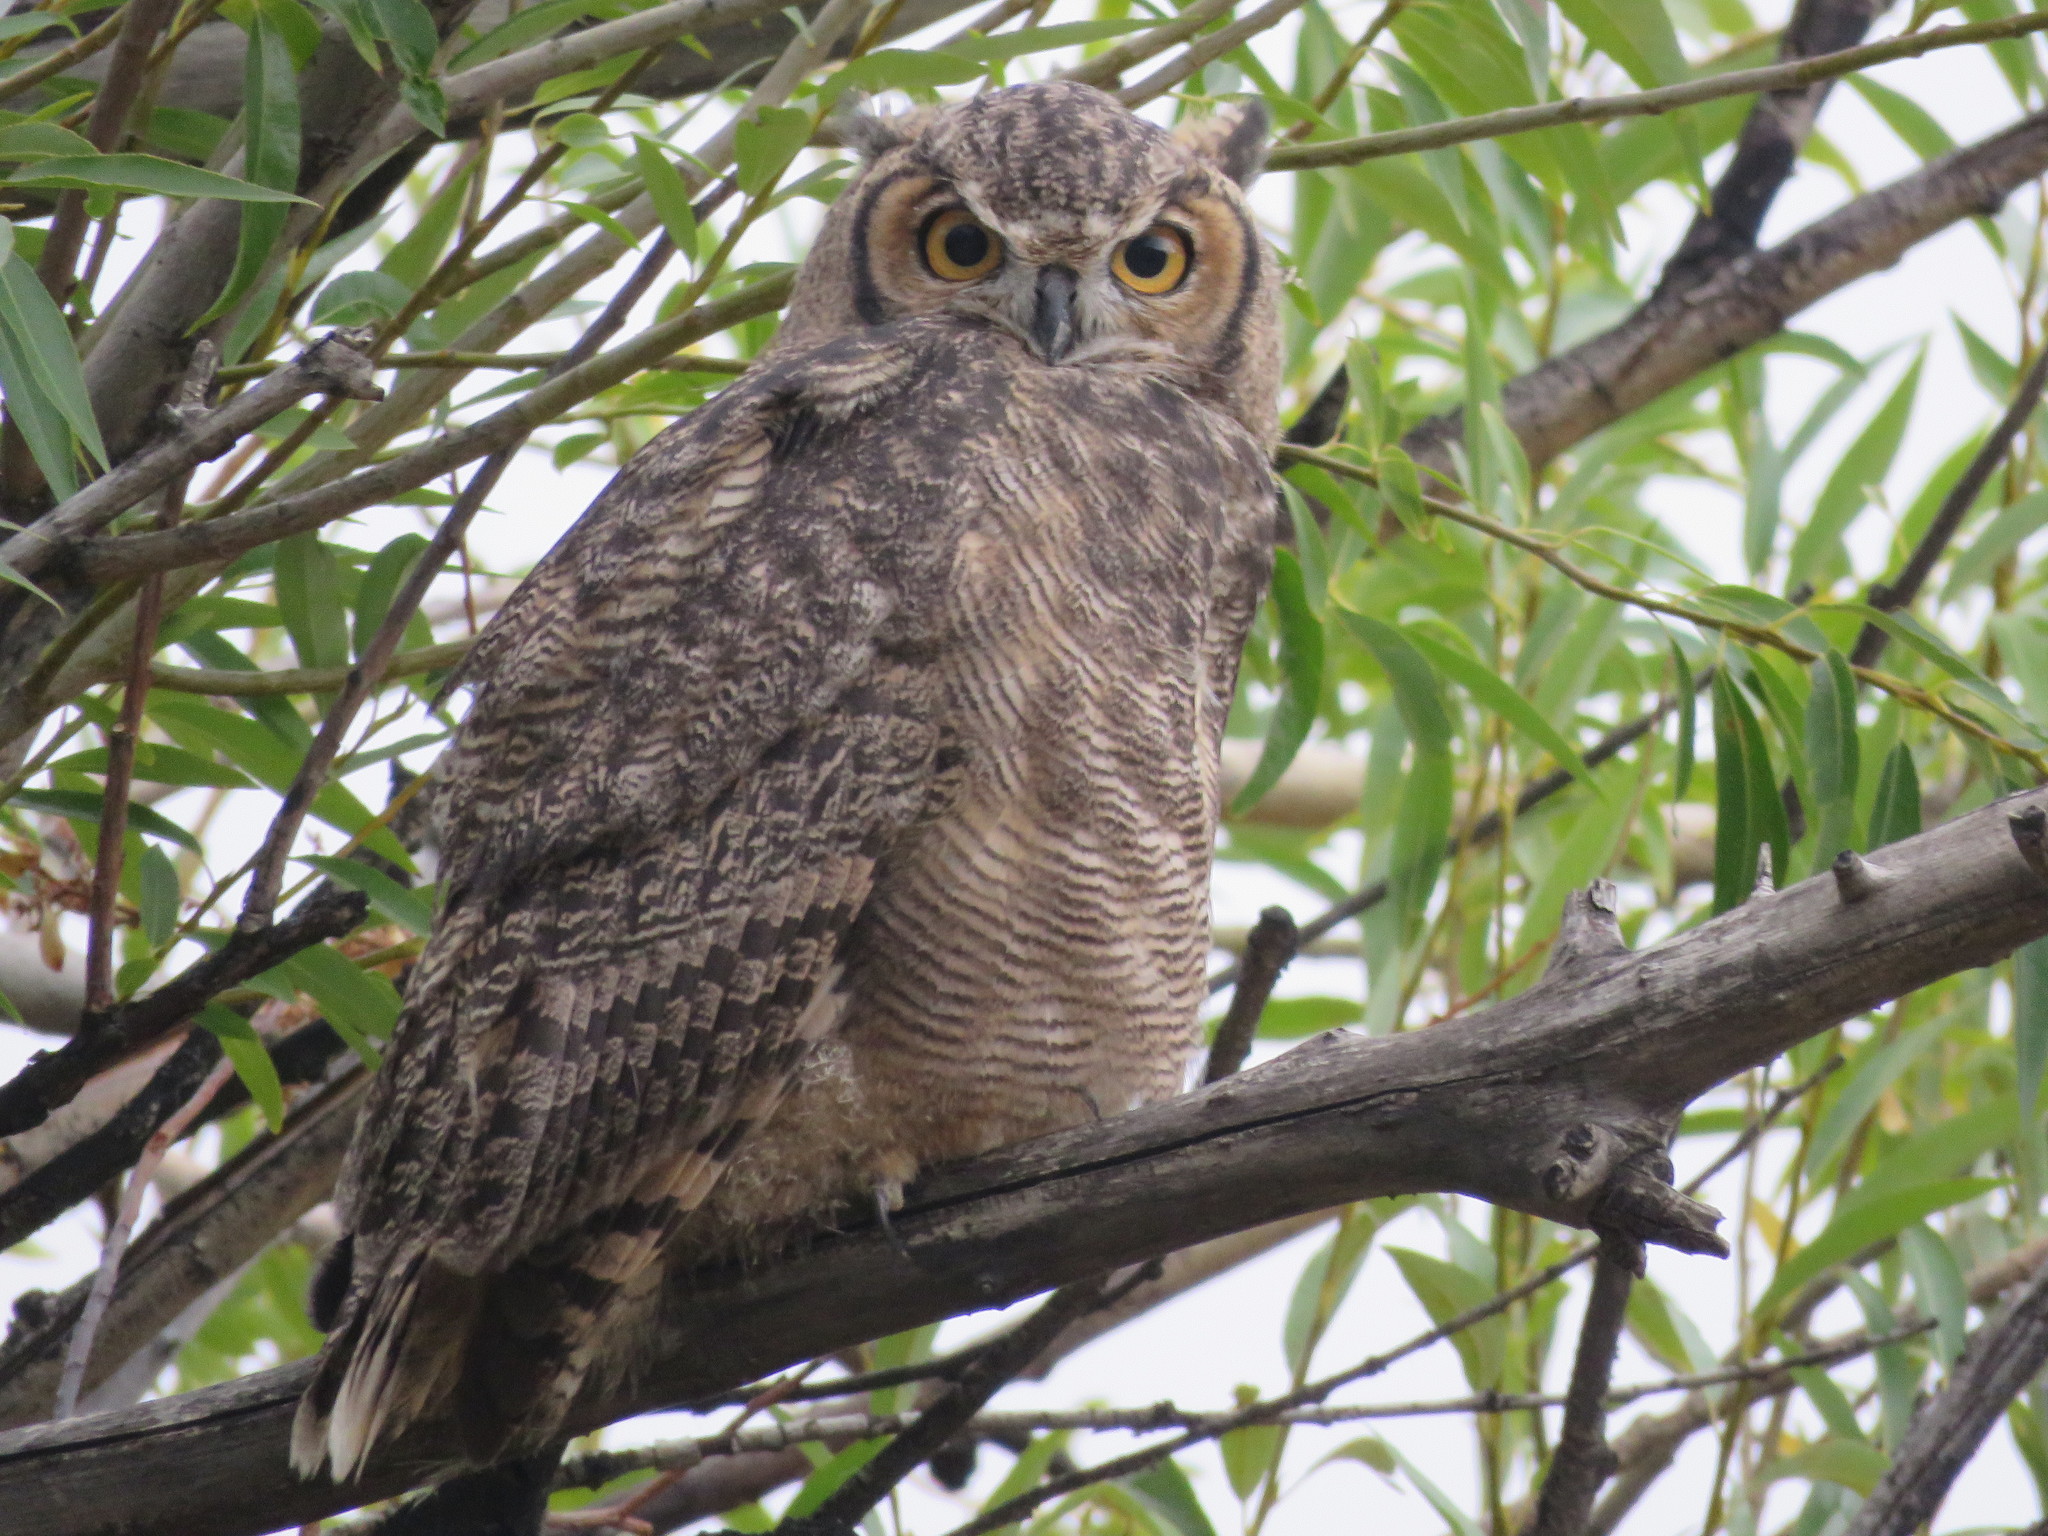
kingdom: Animalia
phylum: Chordata
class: Aves
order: Strigiformes
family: Strigidae
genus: Bubo
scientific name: Bubo magellanicus
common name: Lesser horned owl
